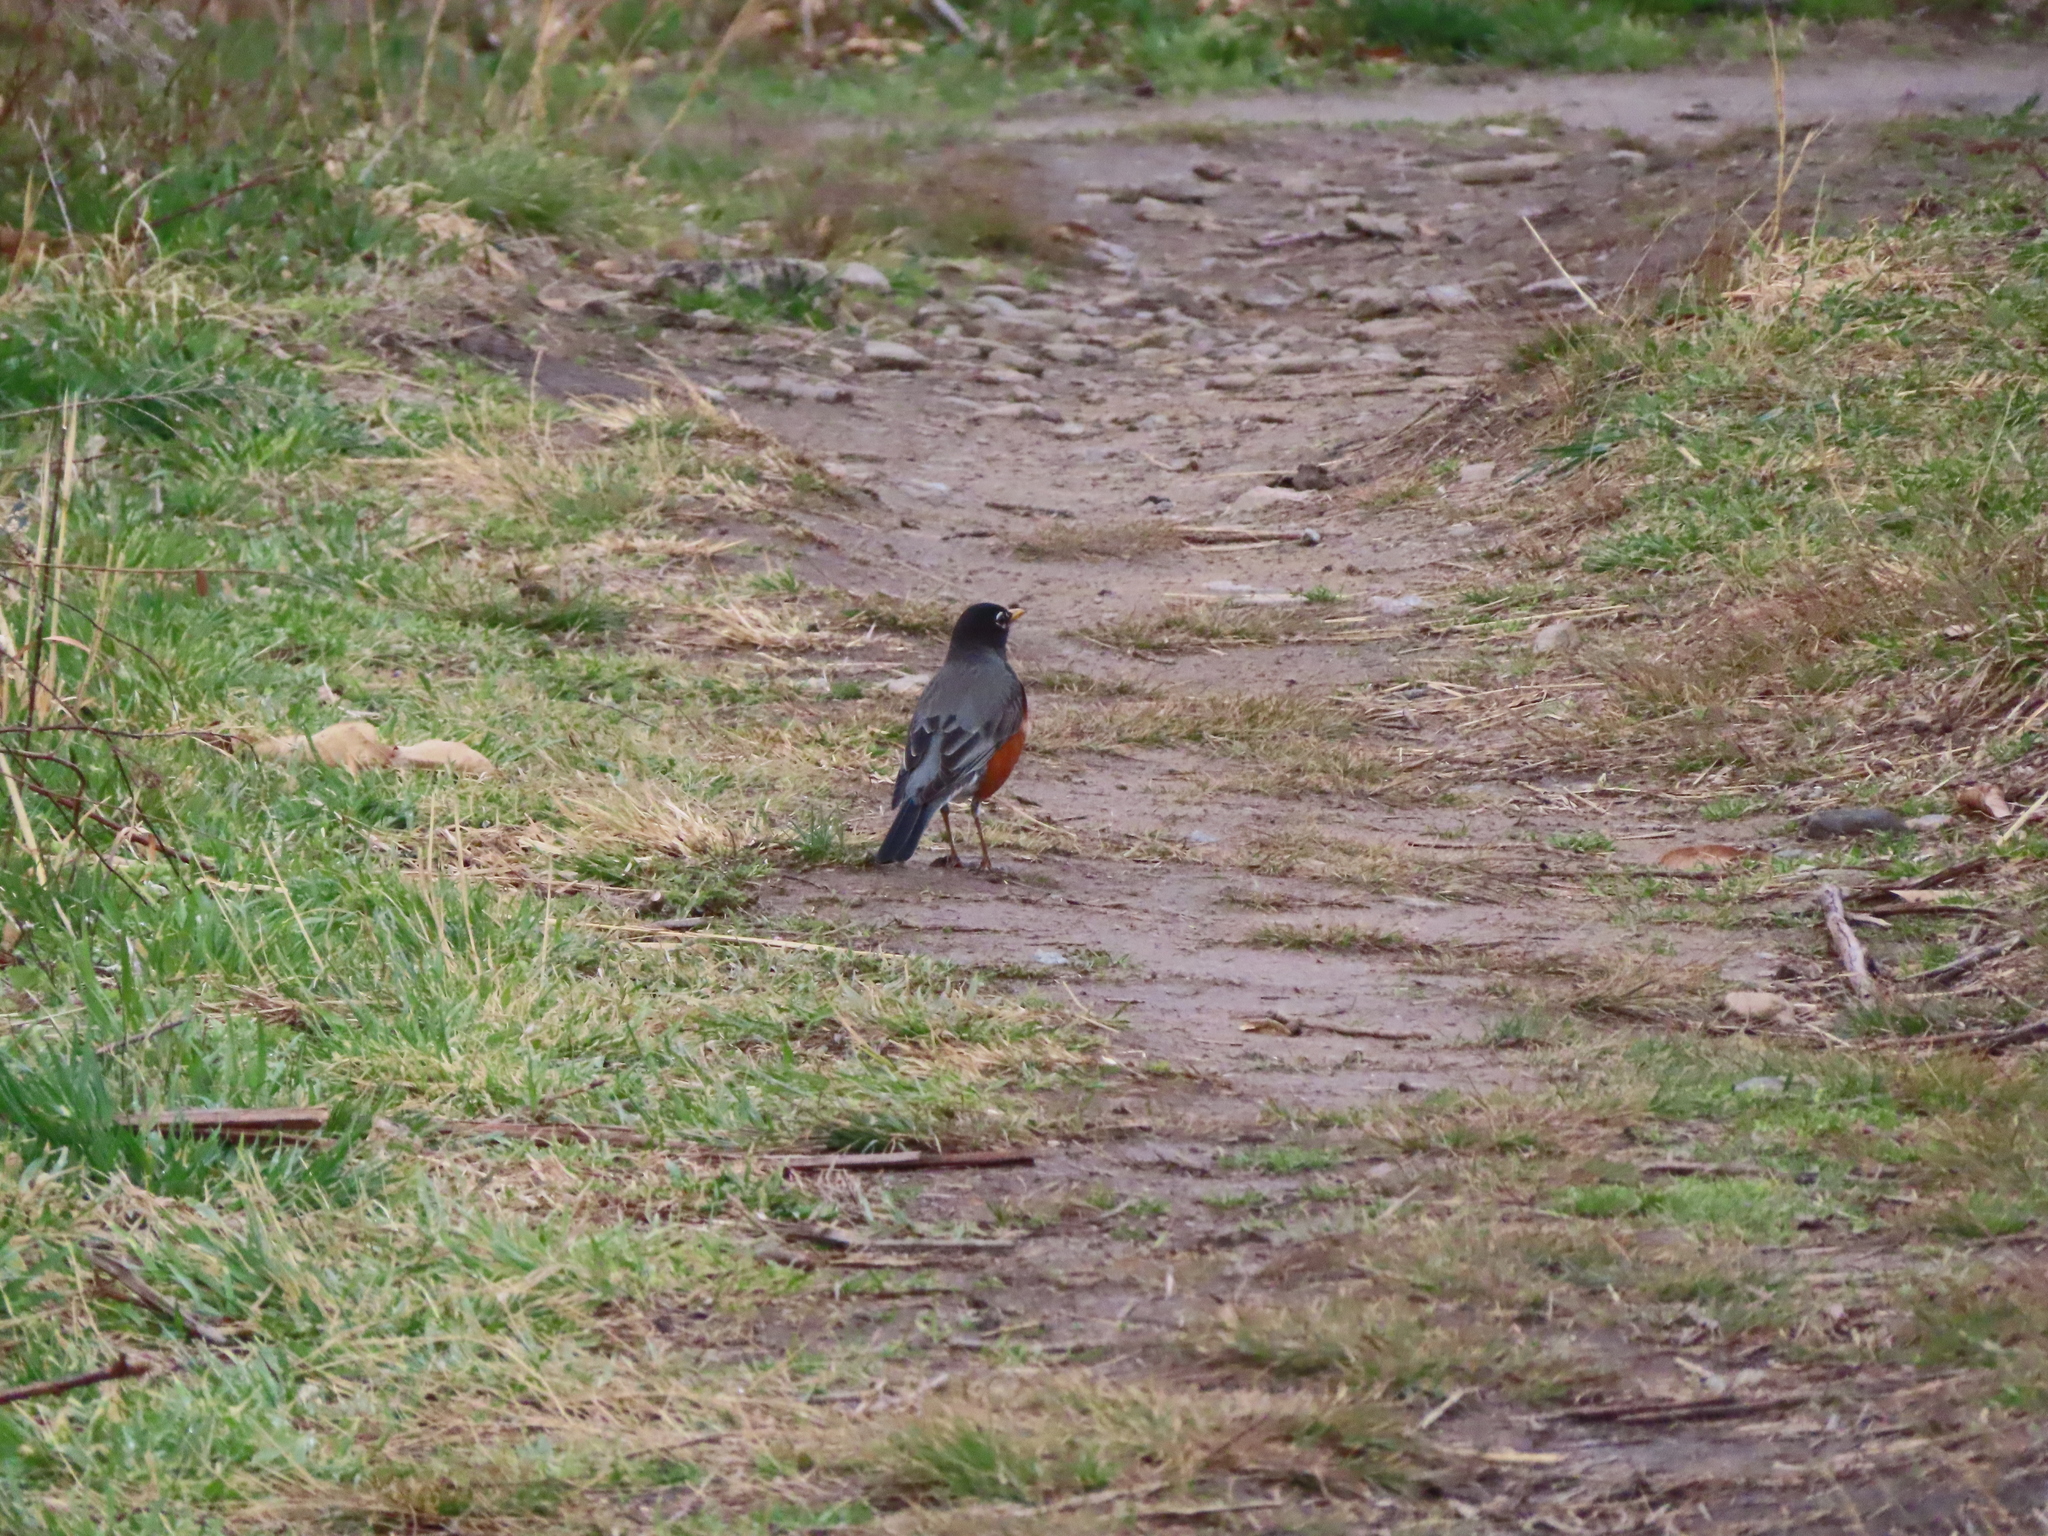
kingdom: Animalia
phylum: Chordata
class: Aves
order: Passeriformes
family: Turdidae
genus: Turdus
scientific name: Turdus migratorius
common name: American robin
